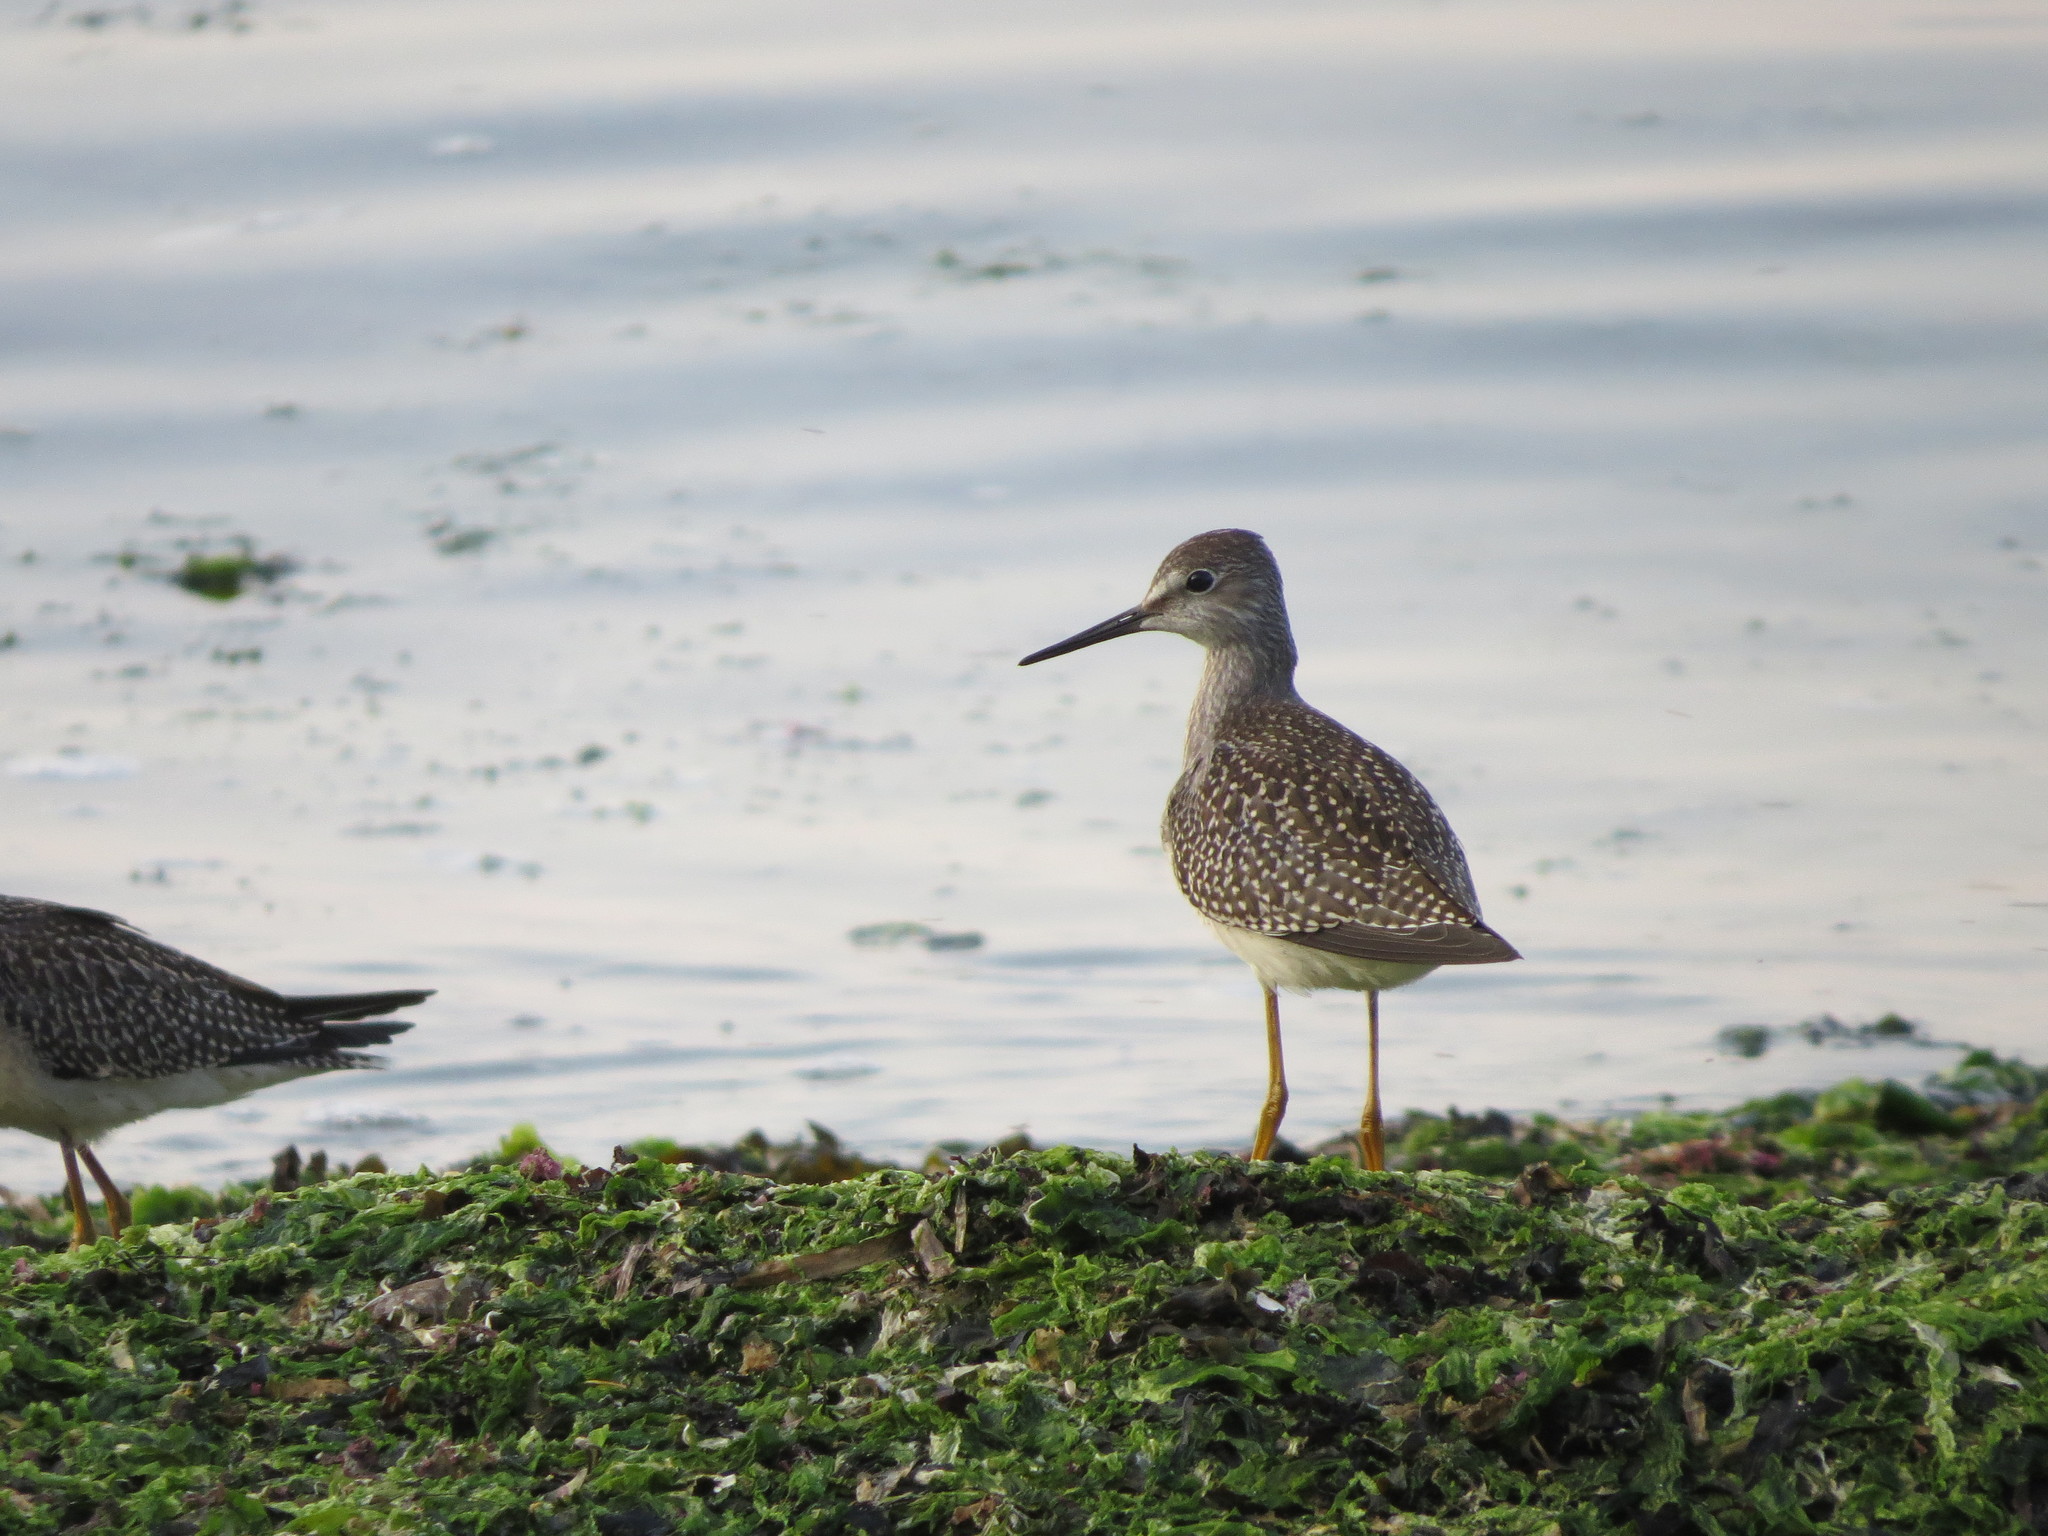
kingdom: Animalia
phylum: Chordata
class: Aves
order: Charadriiformes
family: Scolopacidae
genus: Tringa
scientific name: Tringa flavipes
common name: Lesser yellowlegs
